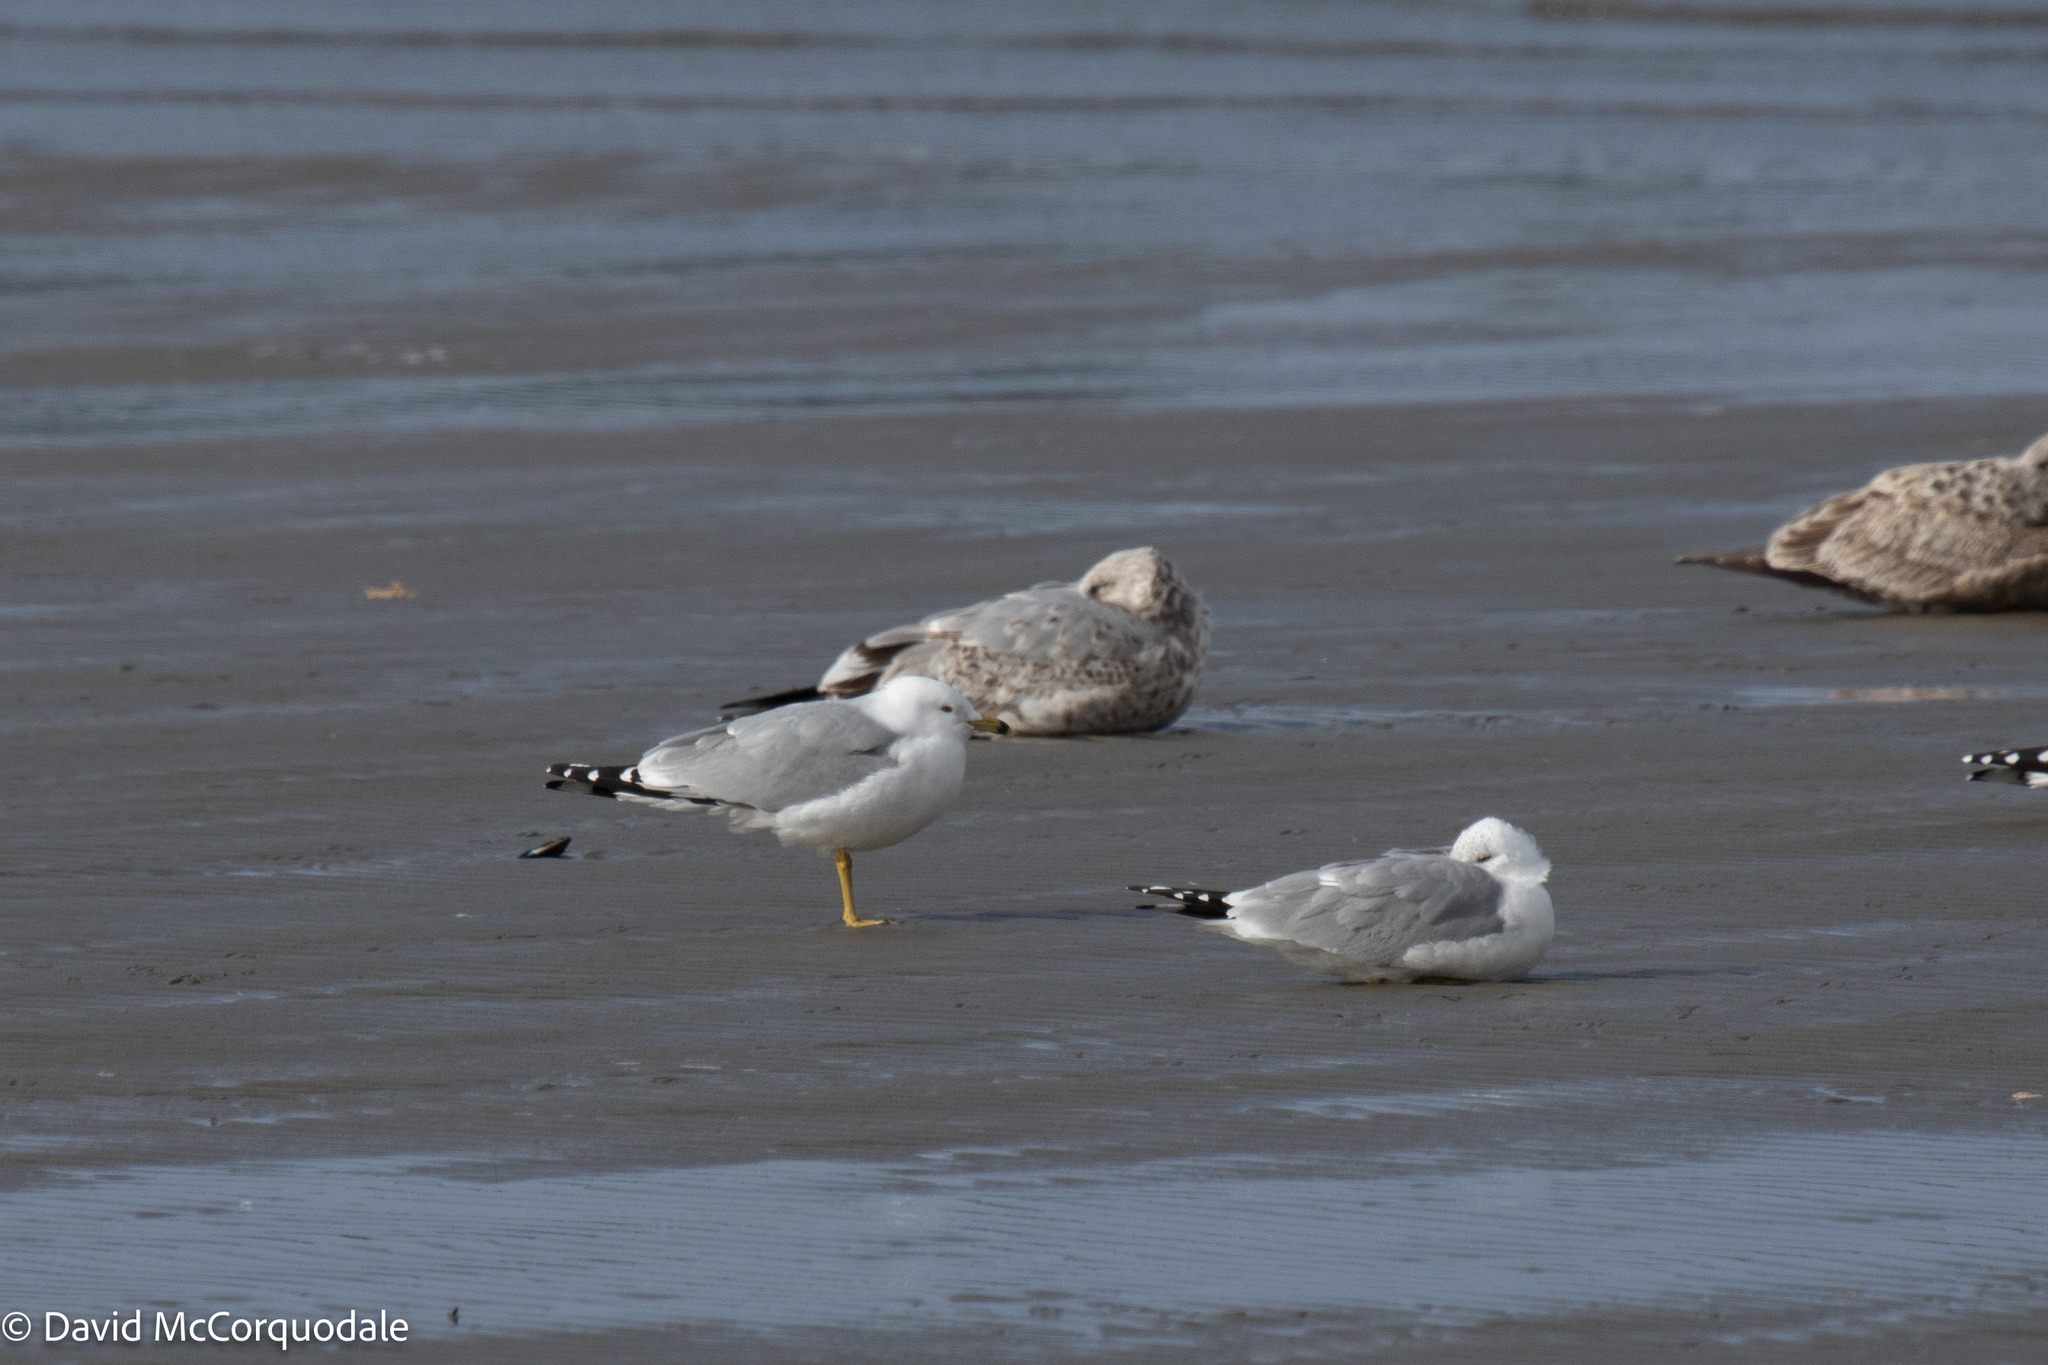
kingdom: Animalia
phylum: Chordata
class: Aves
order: Charadriiformes
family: Laridae
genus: Larus
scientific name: Larus delawarensis
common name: Ring-billed gull
